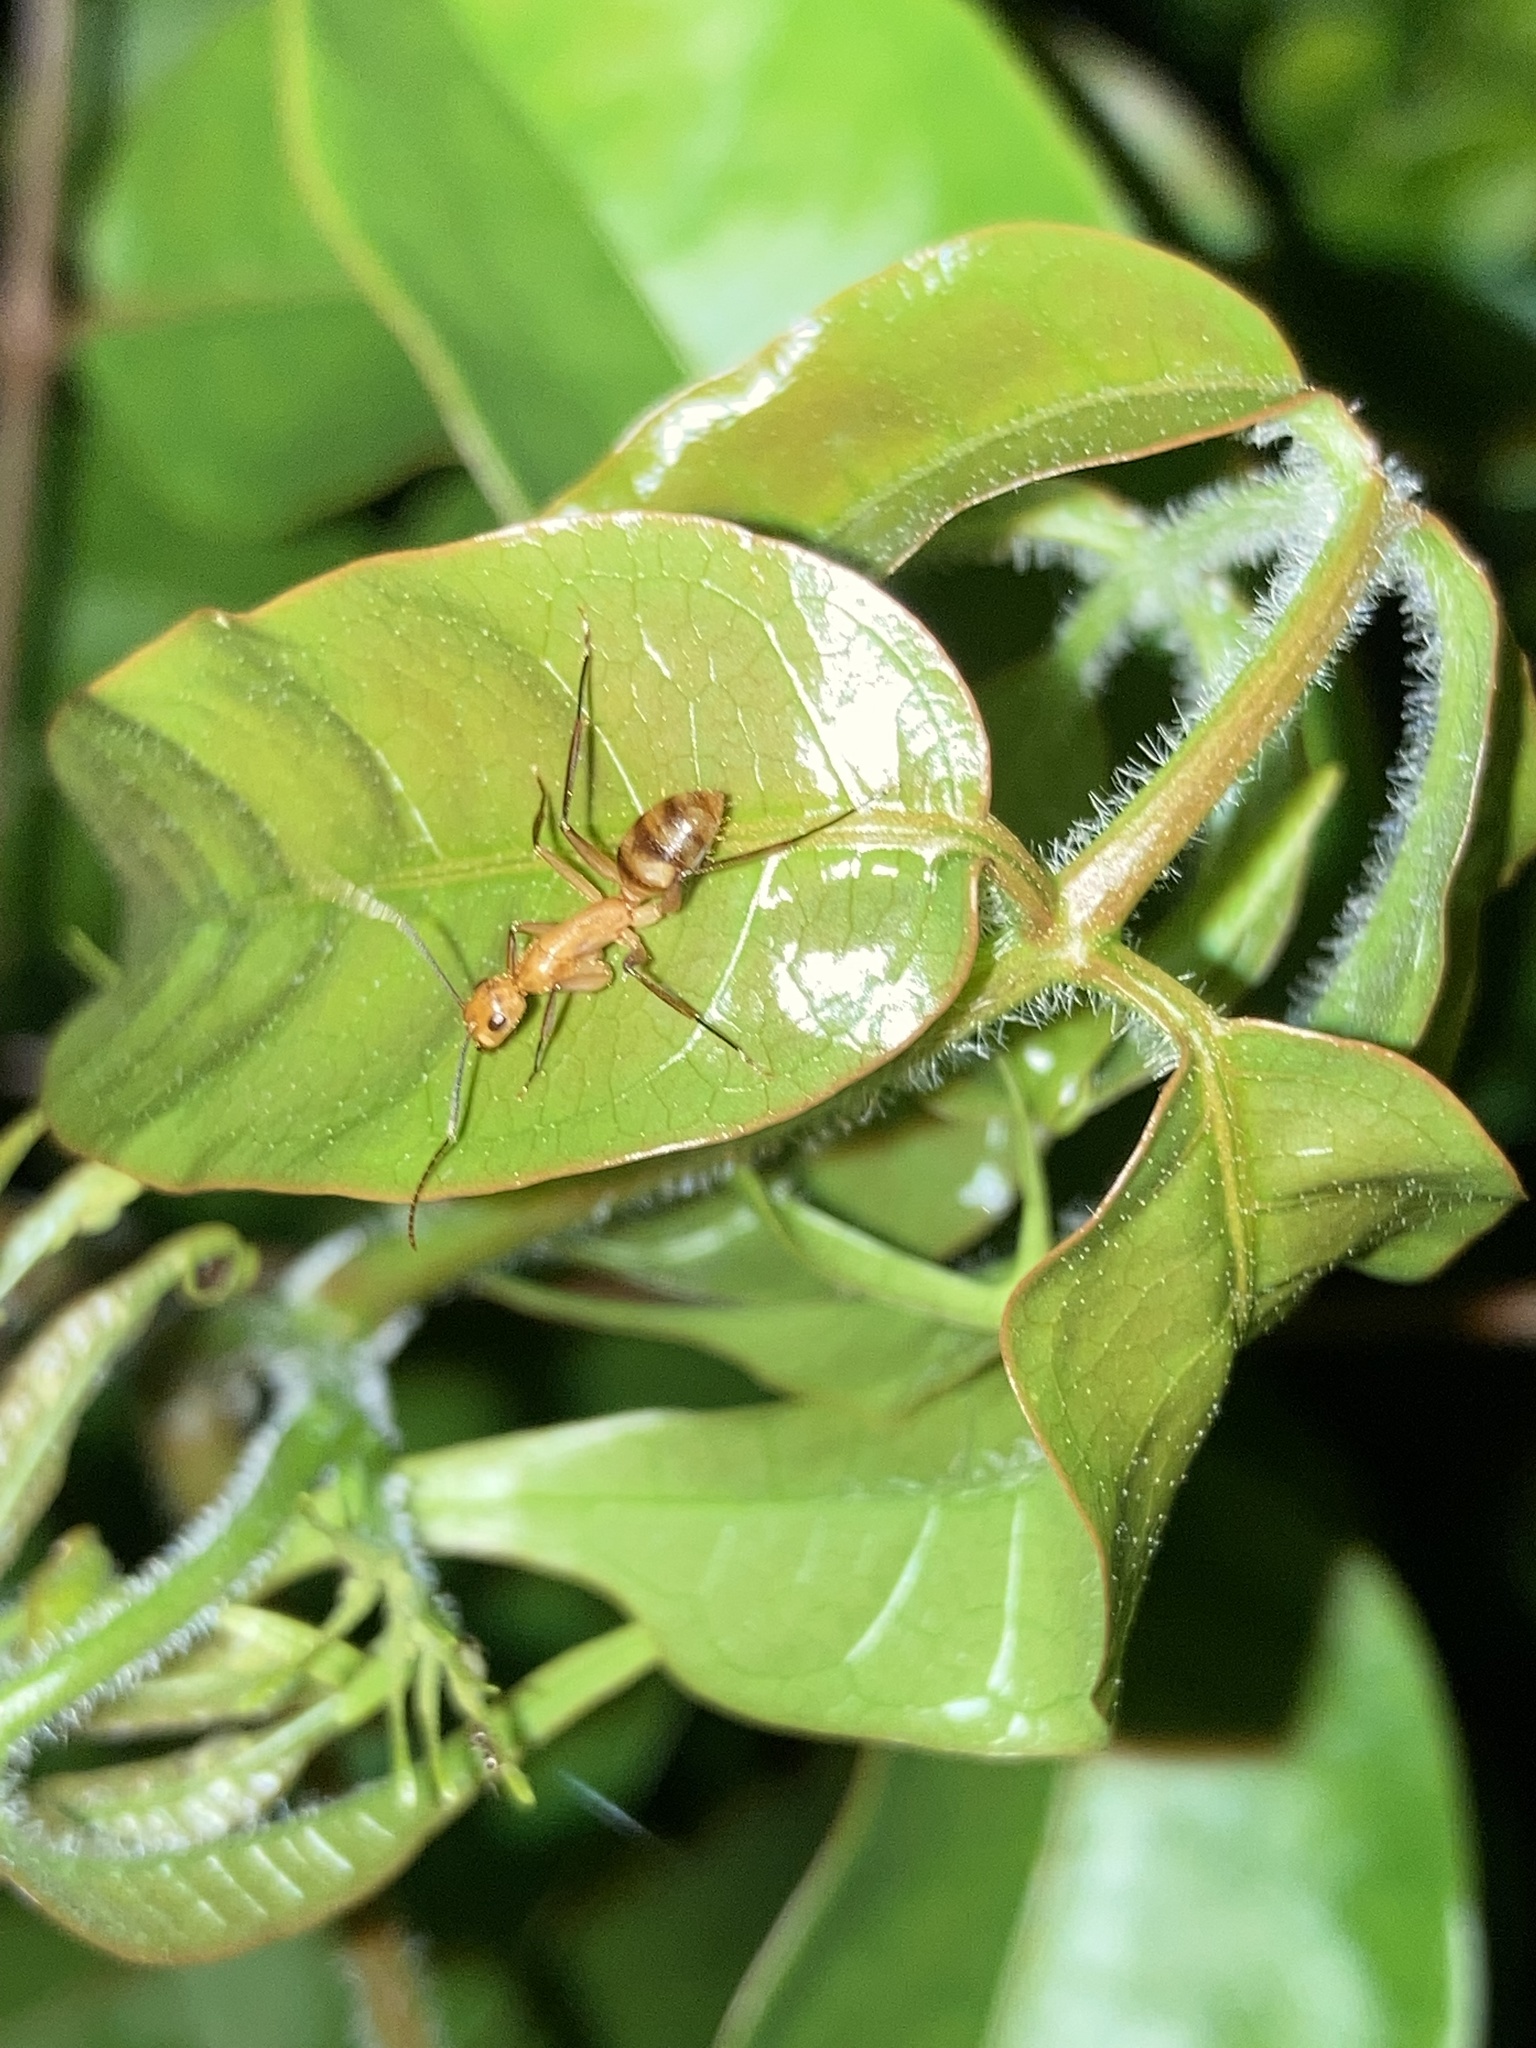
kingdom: Animalia
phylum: Arthropoda
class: Insecta
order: Hymenoptera
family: Formicidae
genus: Camponotus
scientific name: Camponotus
